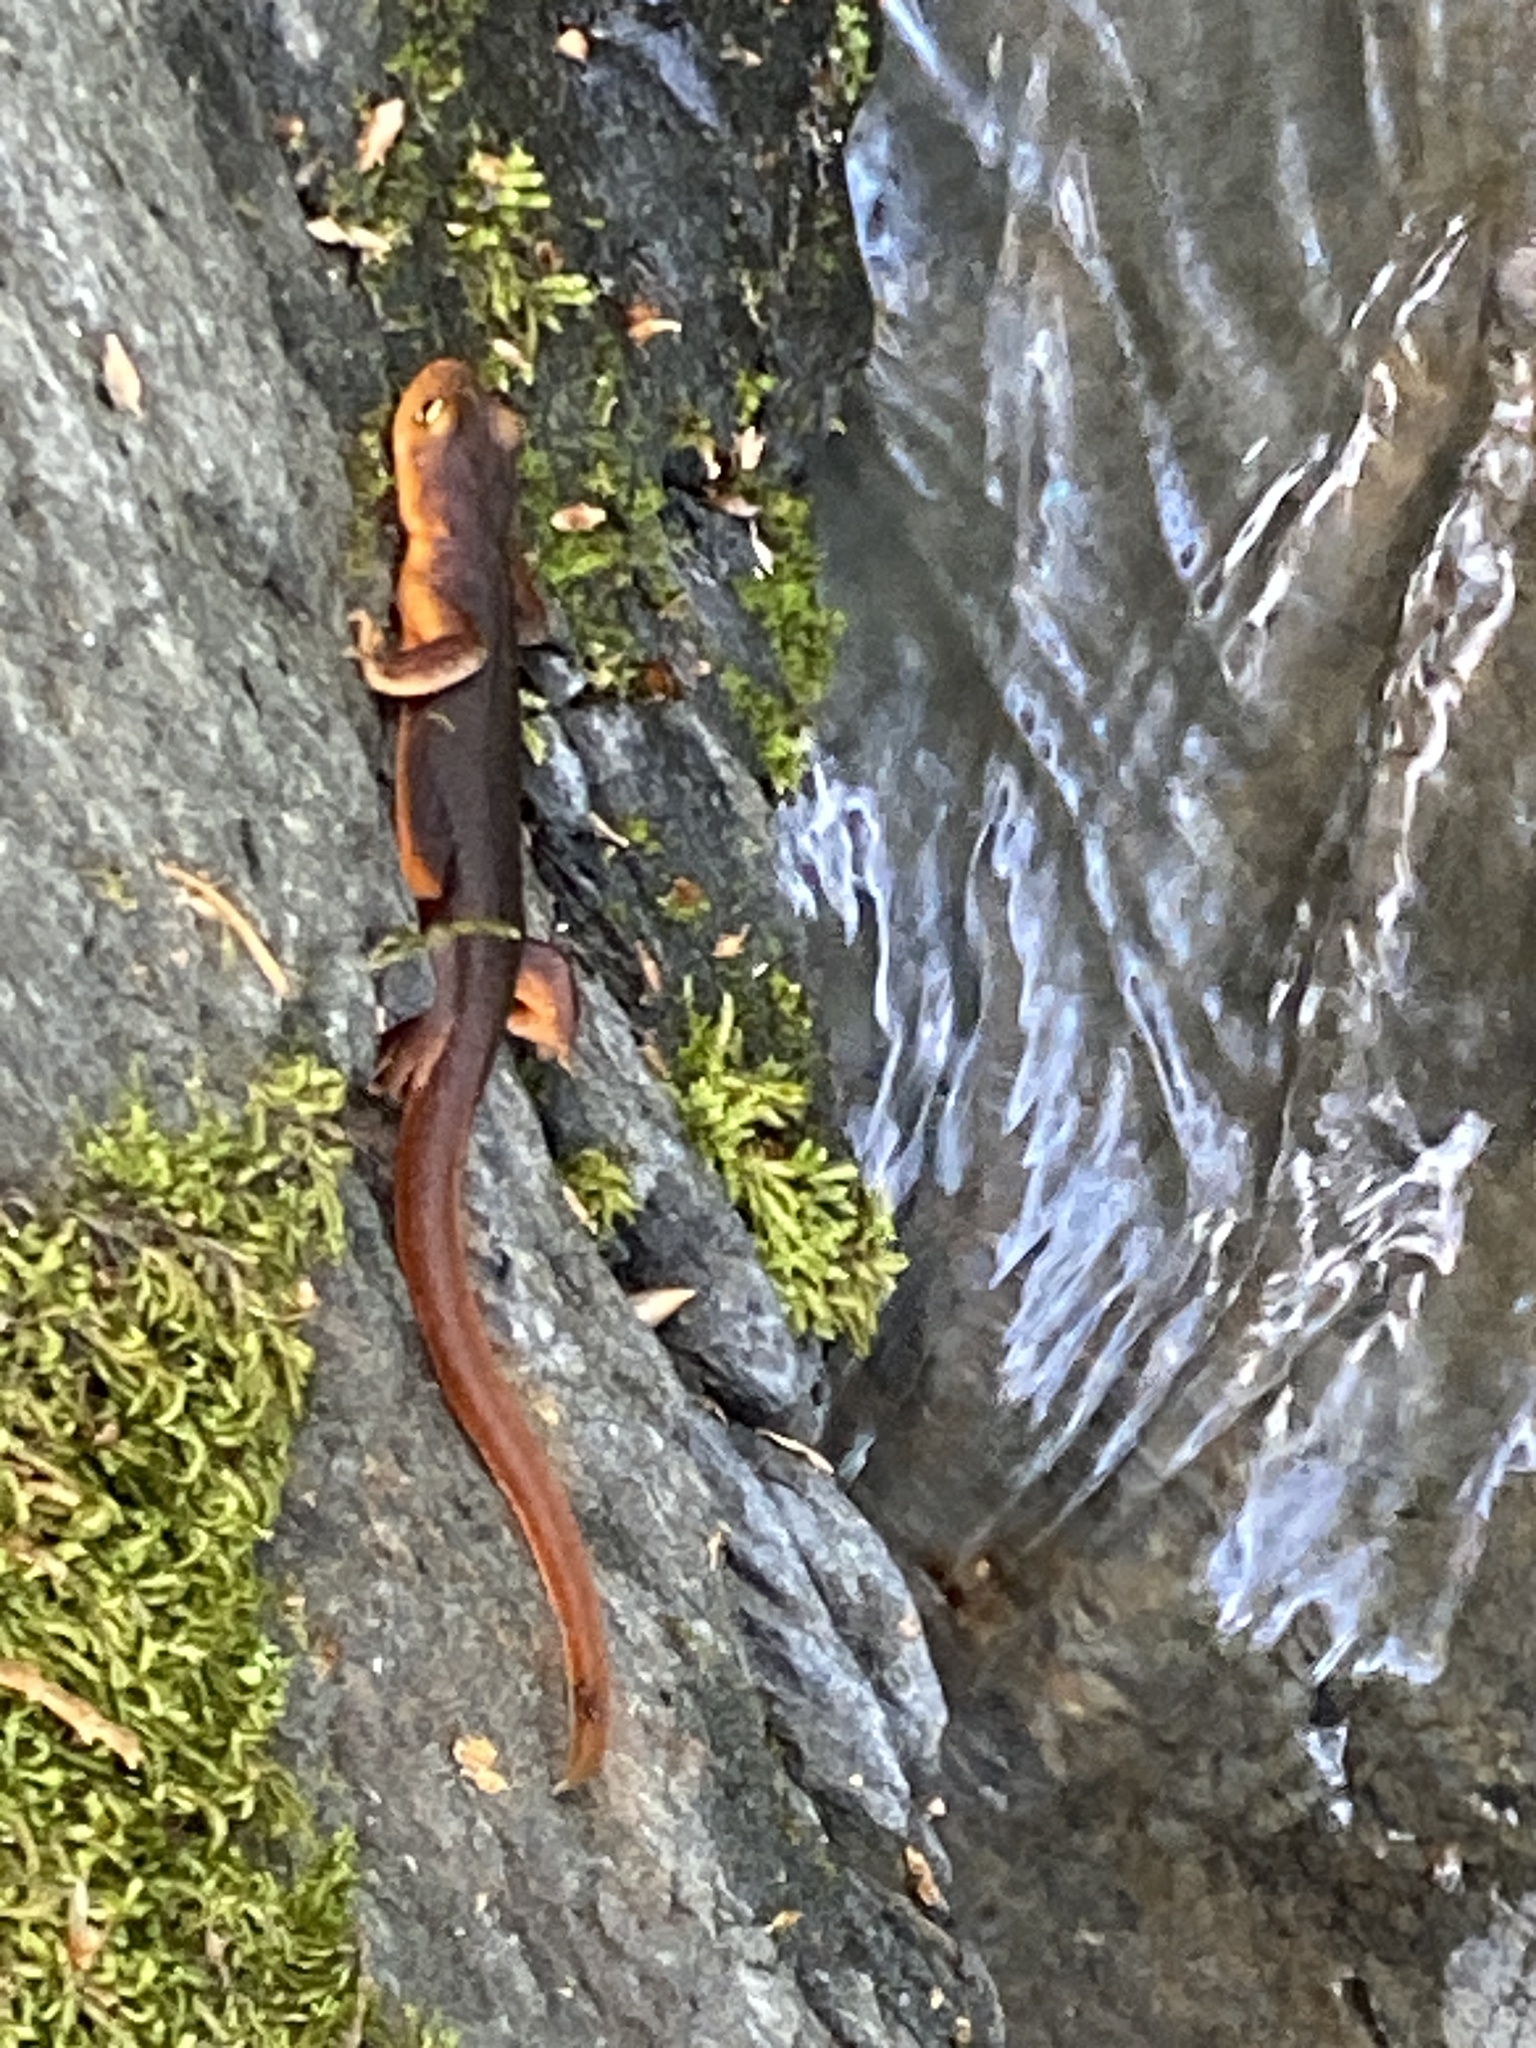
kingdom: Animalia
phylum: Chordata
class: Amphibia
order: Caudata
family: Salamandridae
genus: Taricha
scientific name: Taricha sierrae
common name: Sierra newt
